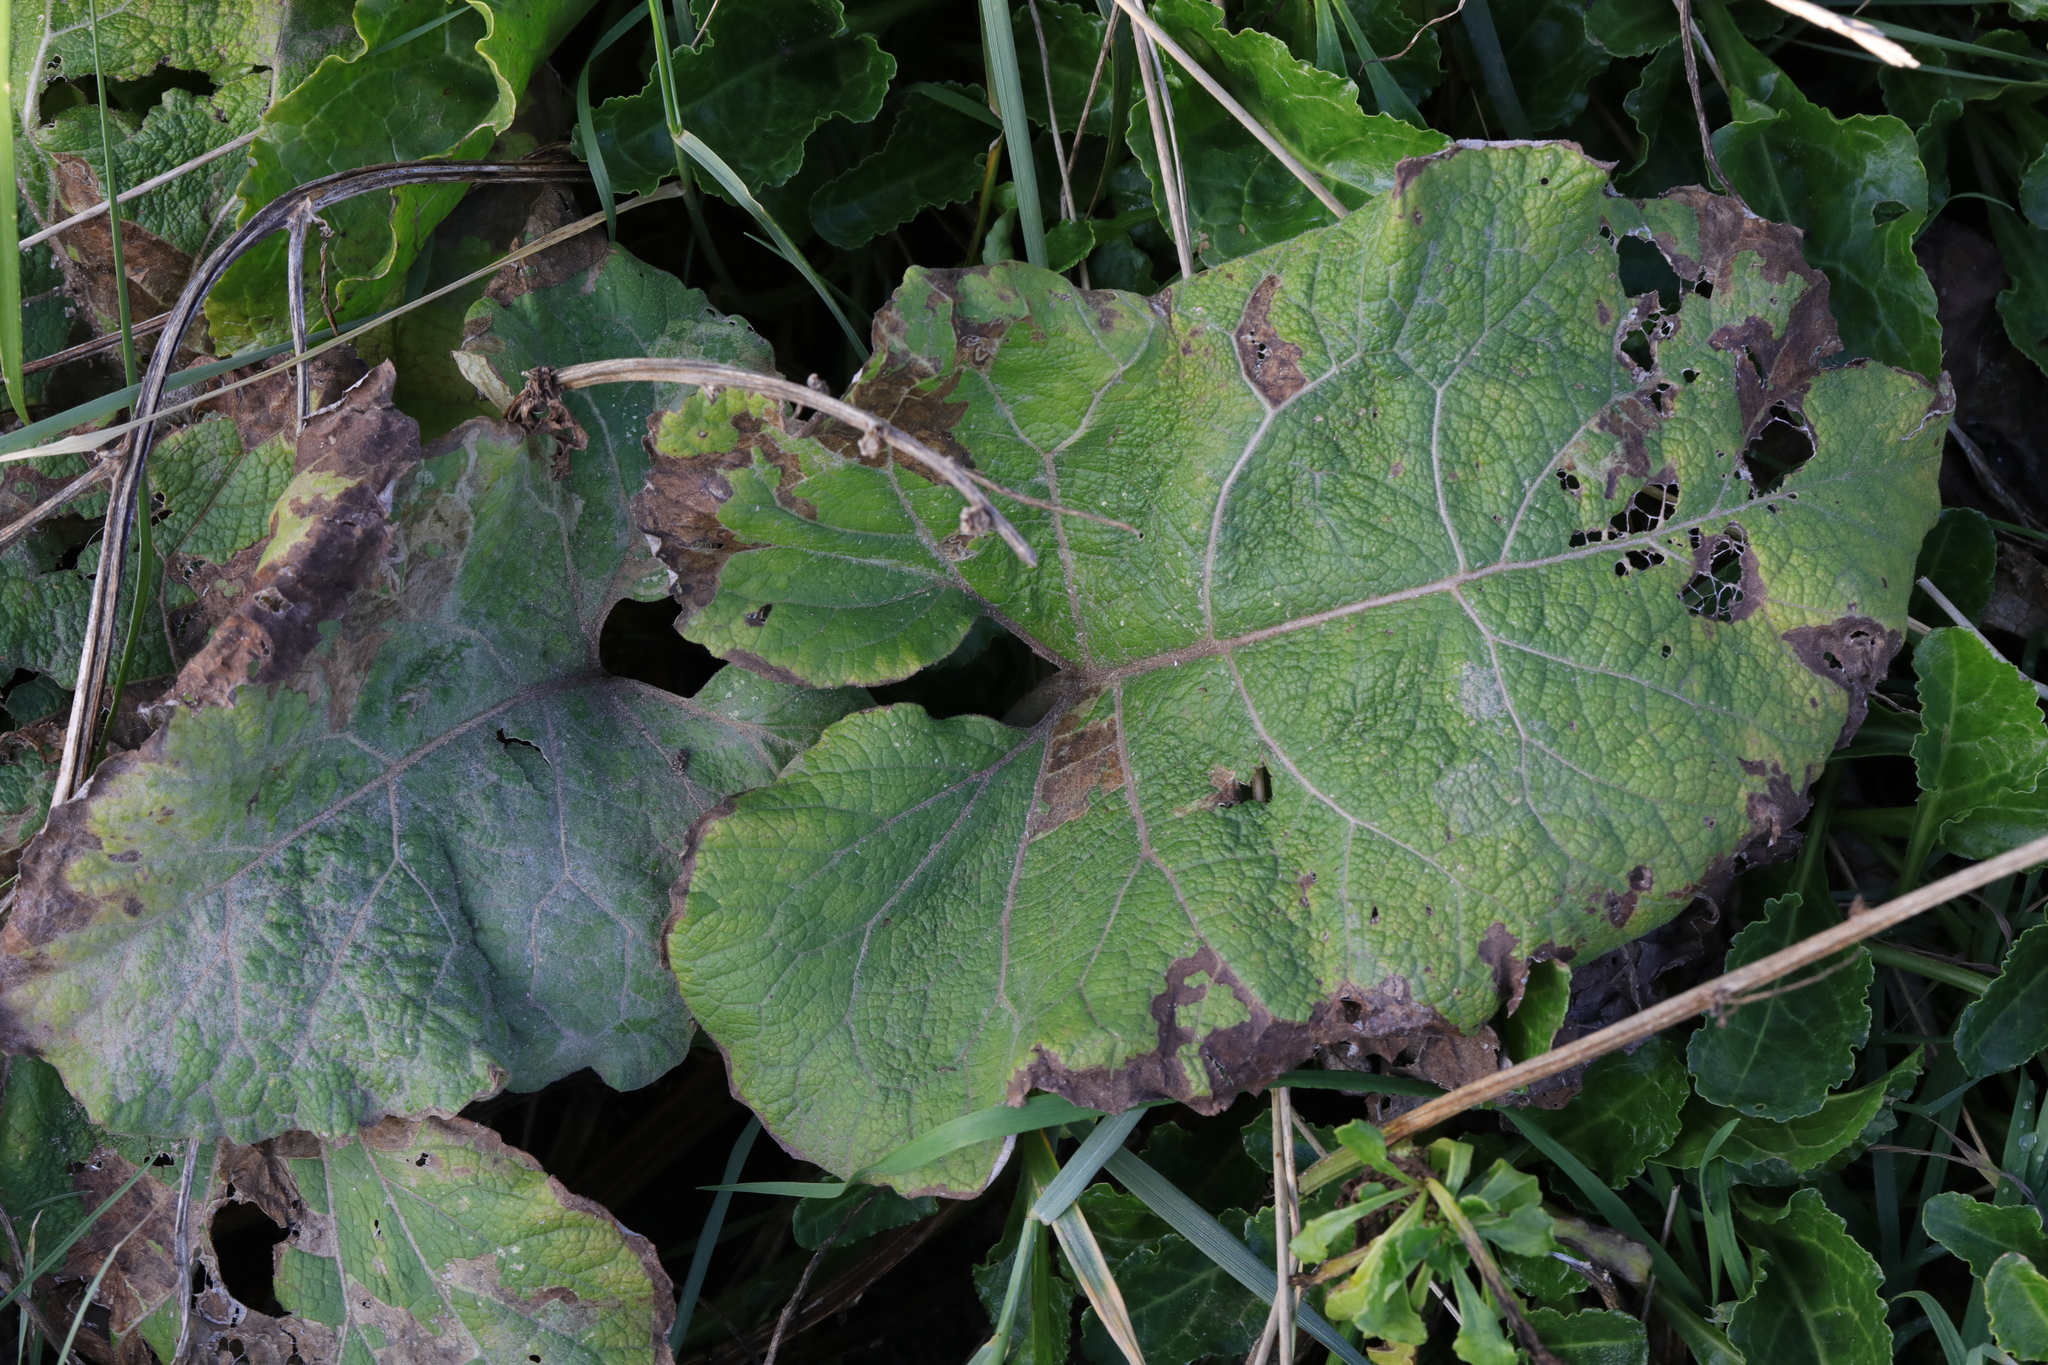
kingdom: Plantae
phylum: Tracheophyta
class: Magnoliopsida
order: Asterales
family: Asteraceae
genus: Arctium
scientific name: Arctium minus
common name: Lesser burdock
